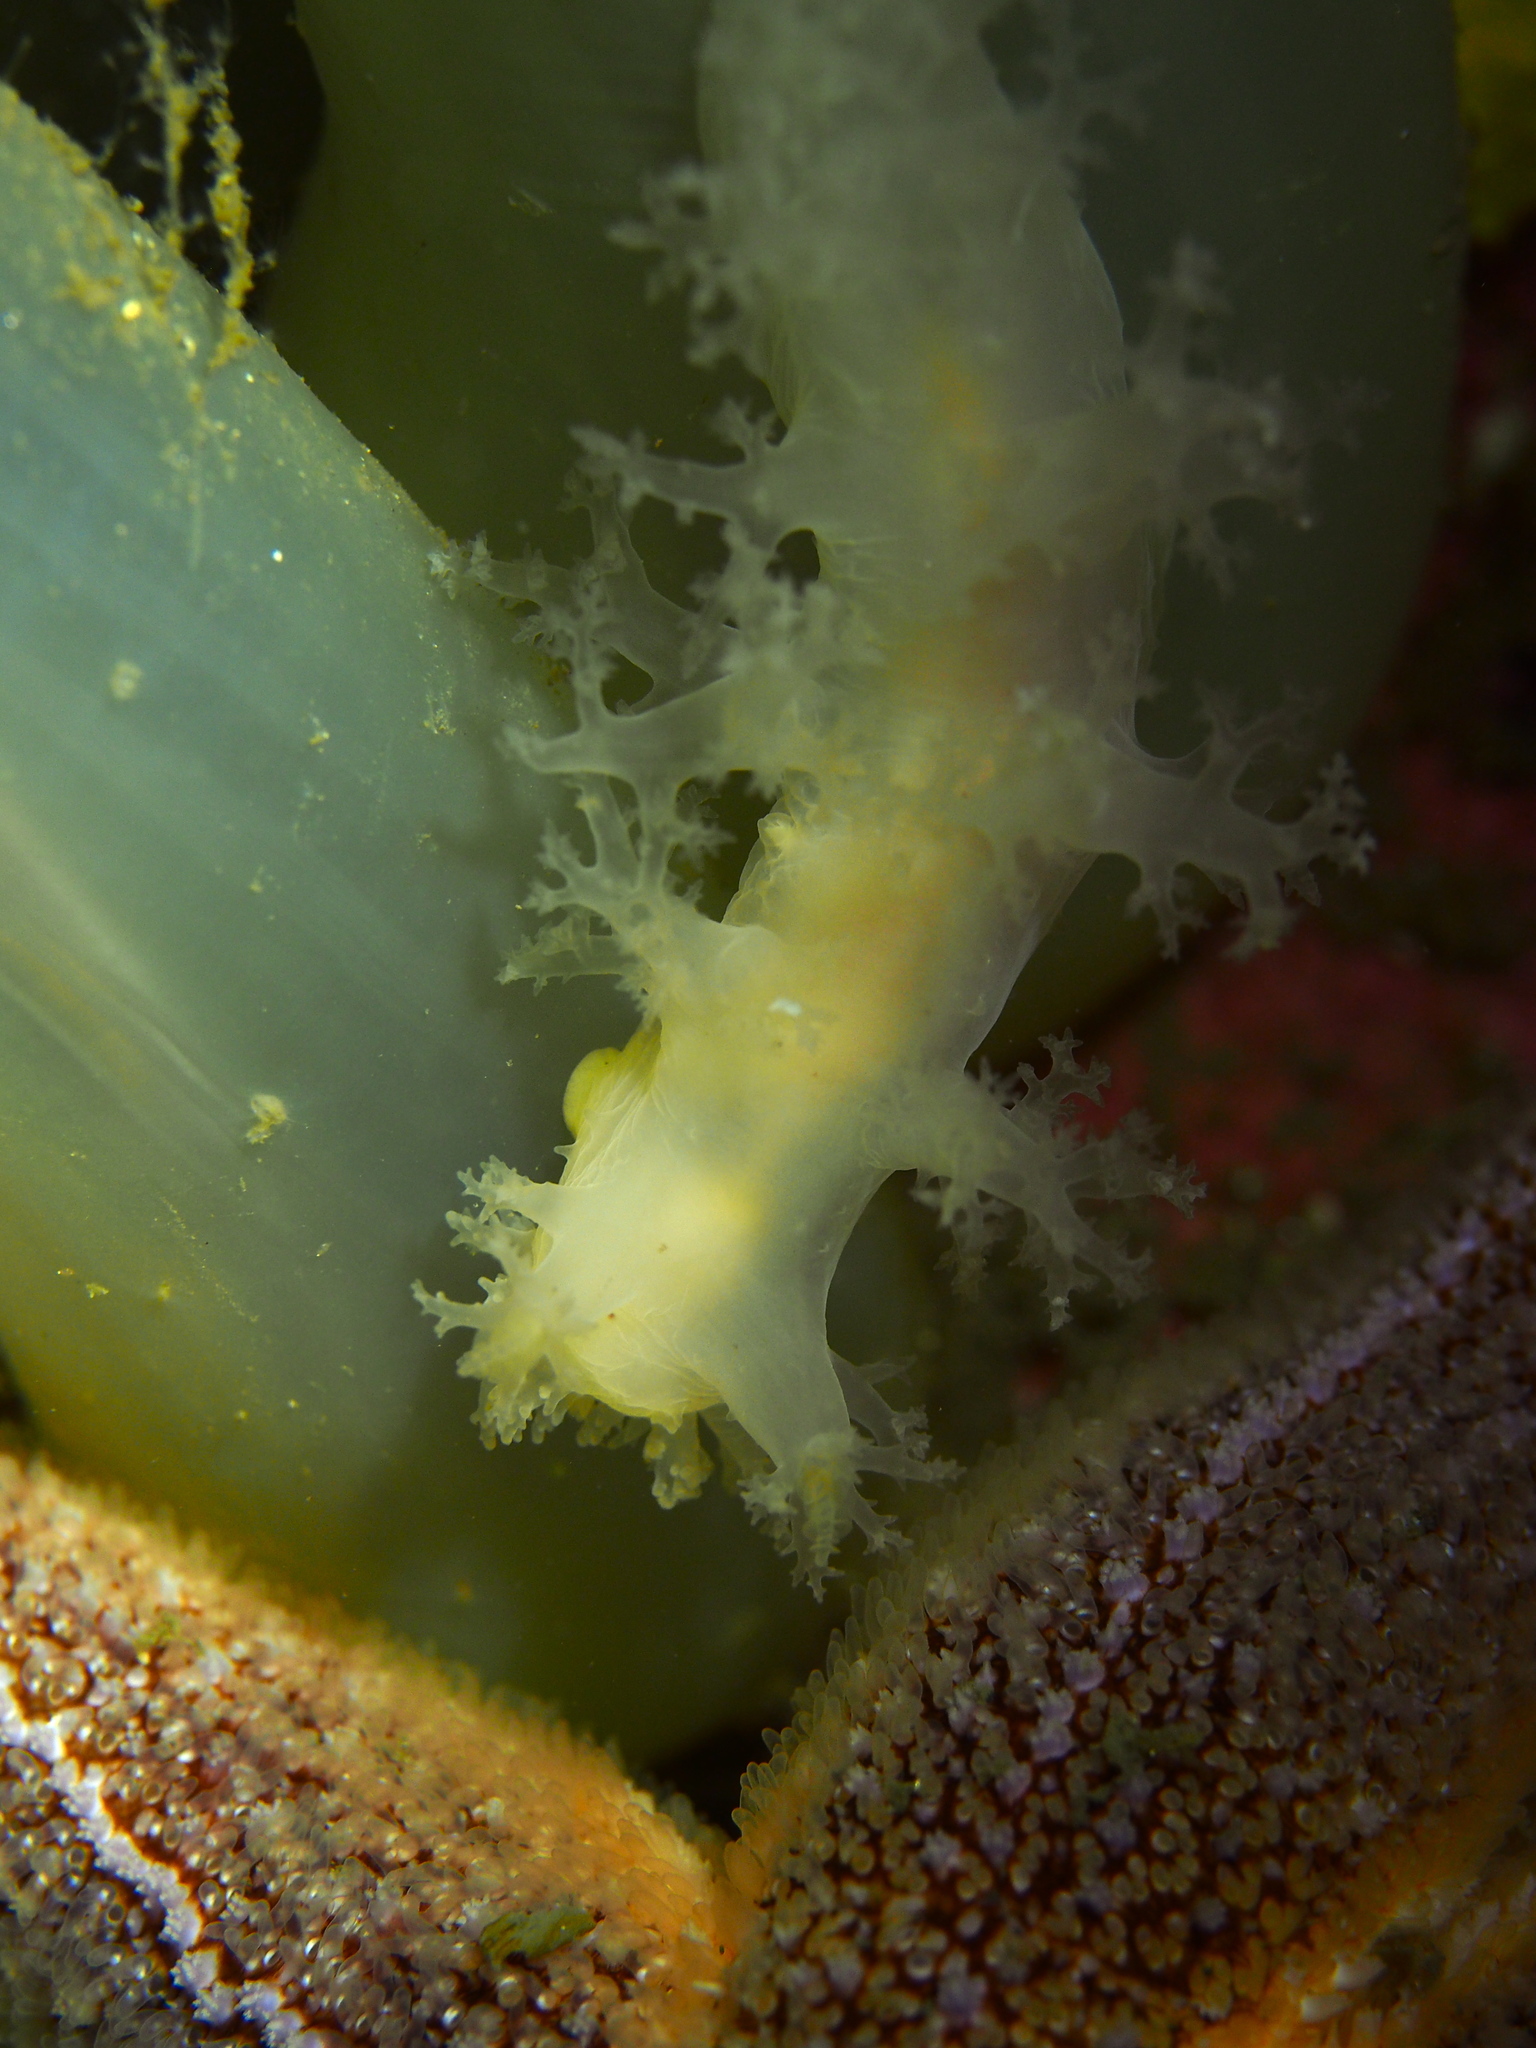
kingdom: Animalia
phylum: Mollusca
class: Gastropoda
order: Nudibranchia
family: Dendronotidae
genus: Dendronotus
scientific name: Dendronotus lacteus
